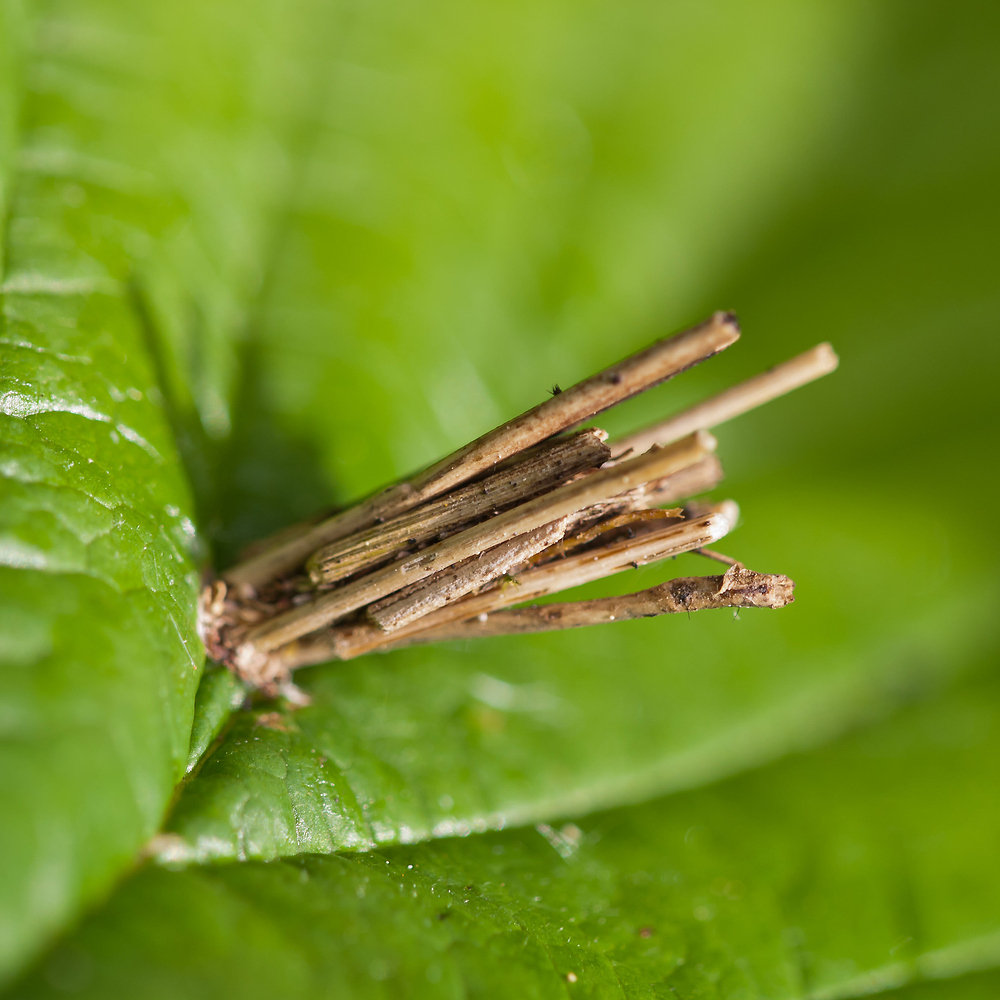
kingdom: Animalia
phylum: Arthropoda
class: Insecta
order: Lepidoptera
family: Psychidae
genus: Psyche
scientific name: Psyche casta
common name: Common sweep
